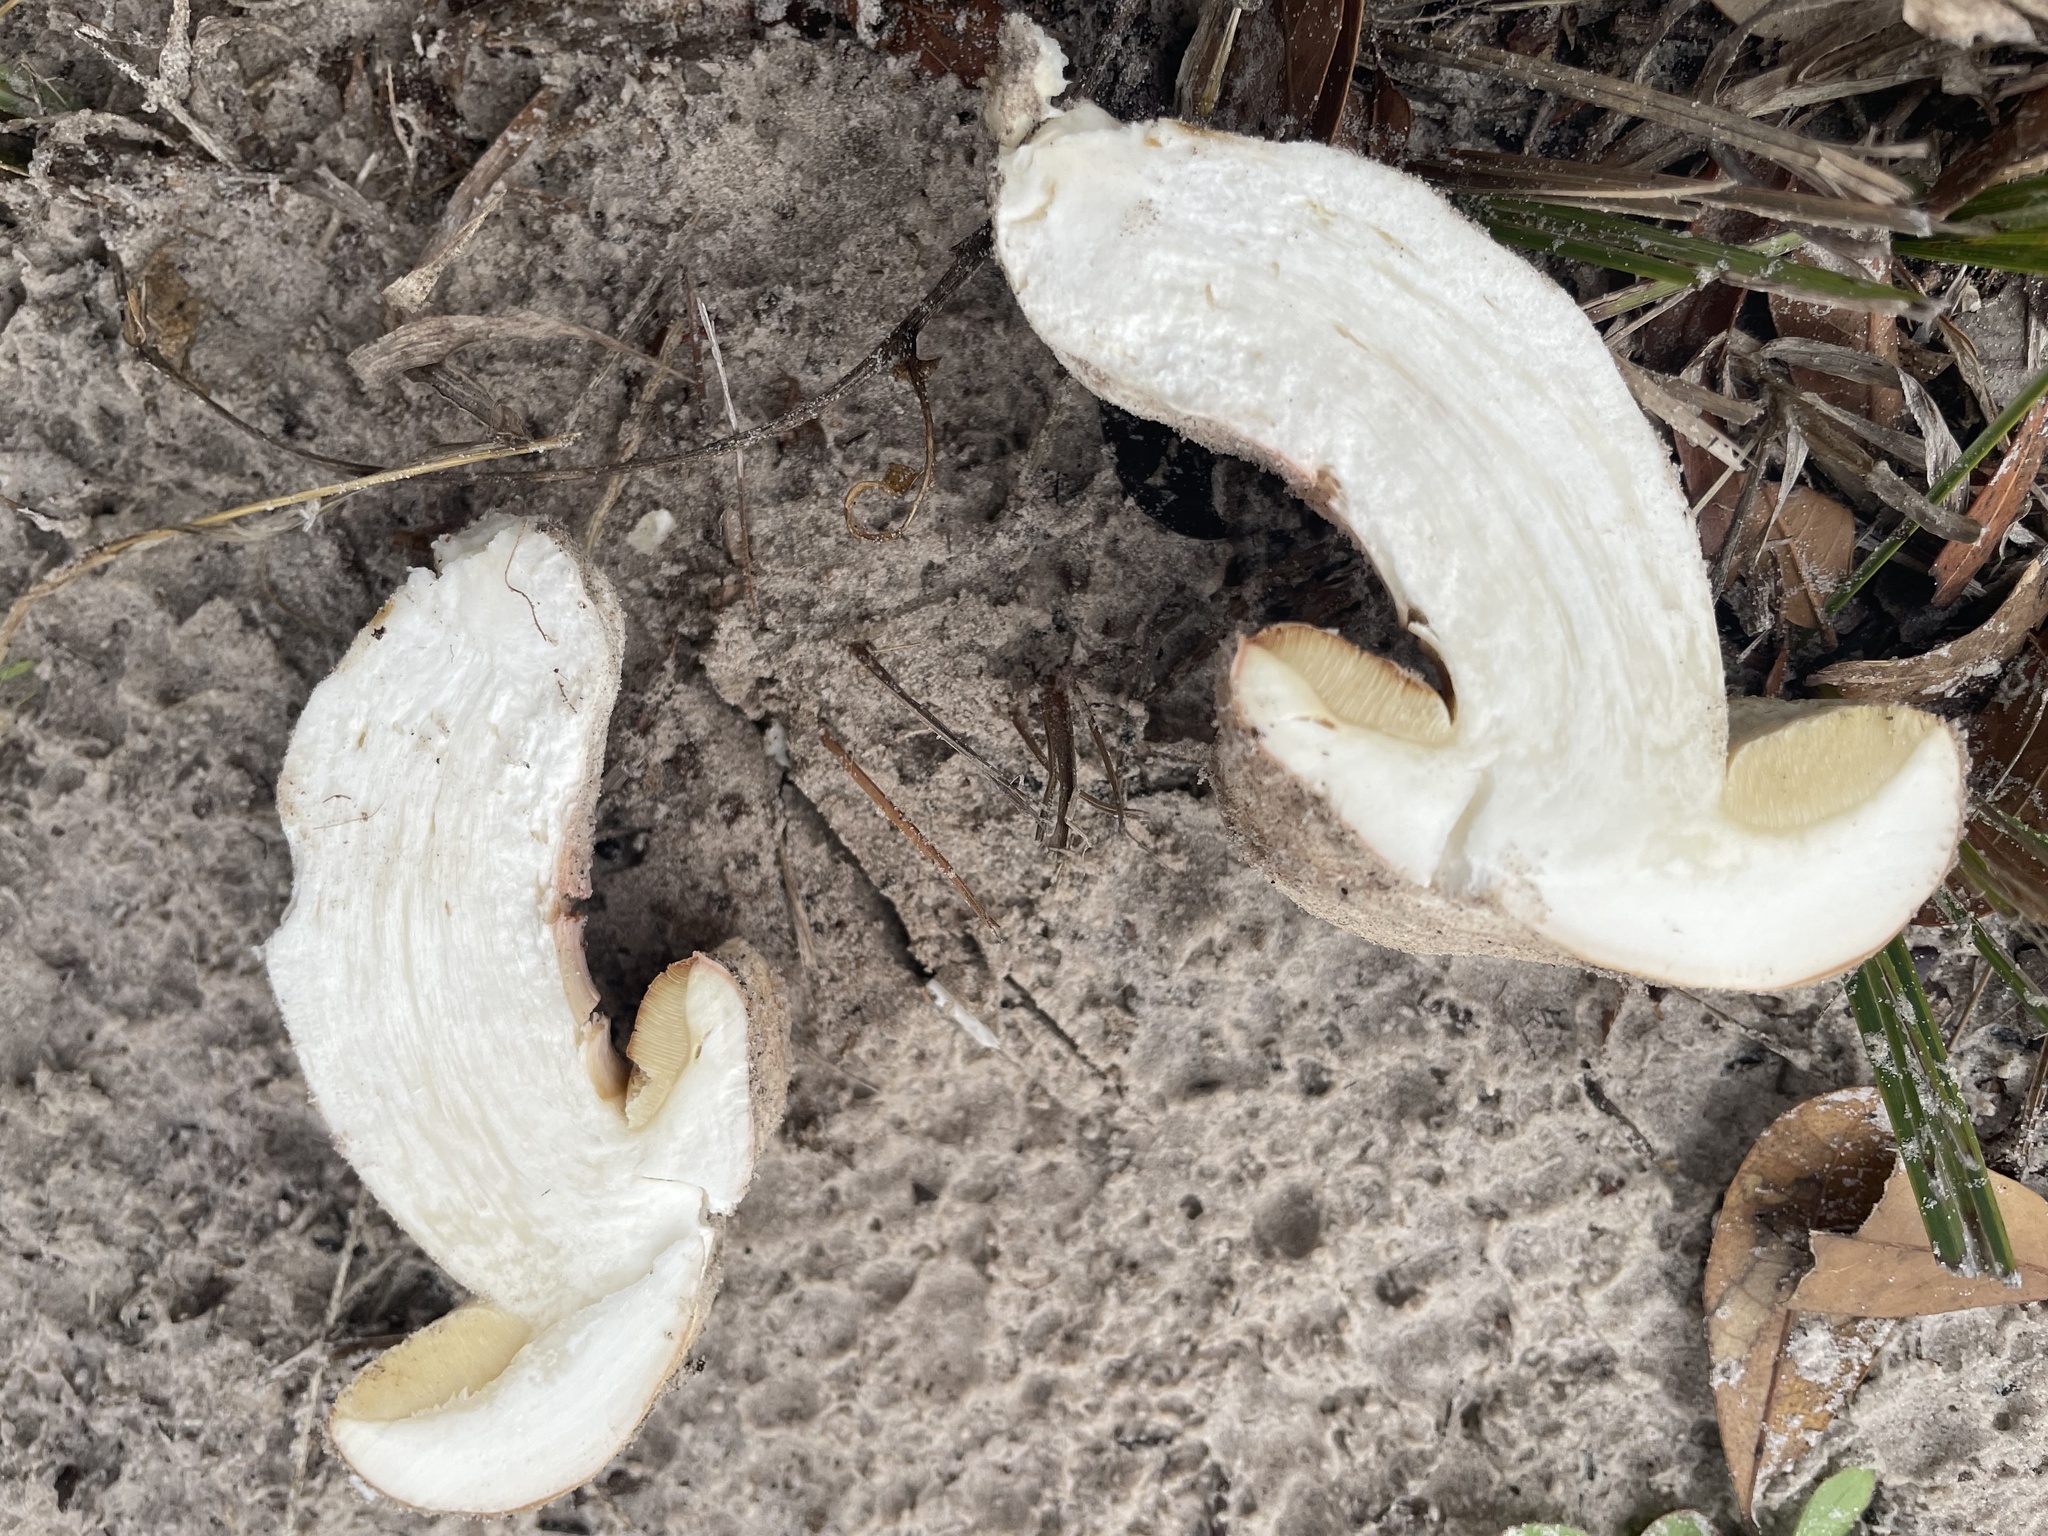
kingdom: Fungi
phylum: Basidiomycota
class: Agaricomycetes
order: Boletales
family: Boletaceae
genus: Xanthoconium
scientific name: Xanthoconium stramineum
